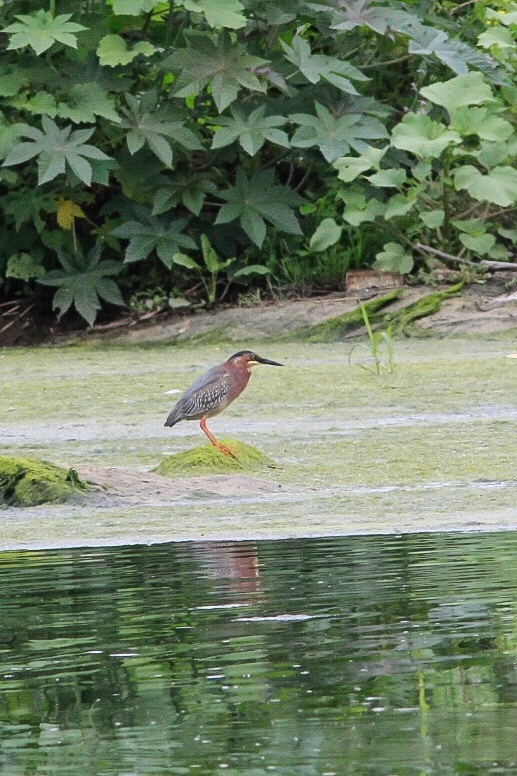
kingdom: Animalia
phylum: Chordata
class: Aves
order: Pelecaniformes
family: Ardeidae
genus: Butorides
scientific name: Butorides virescens
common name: Green heron
